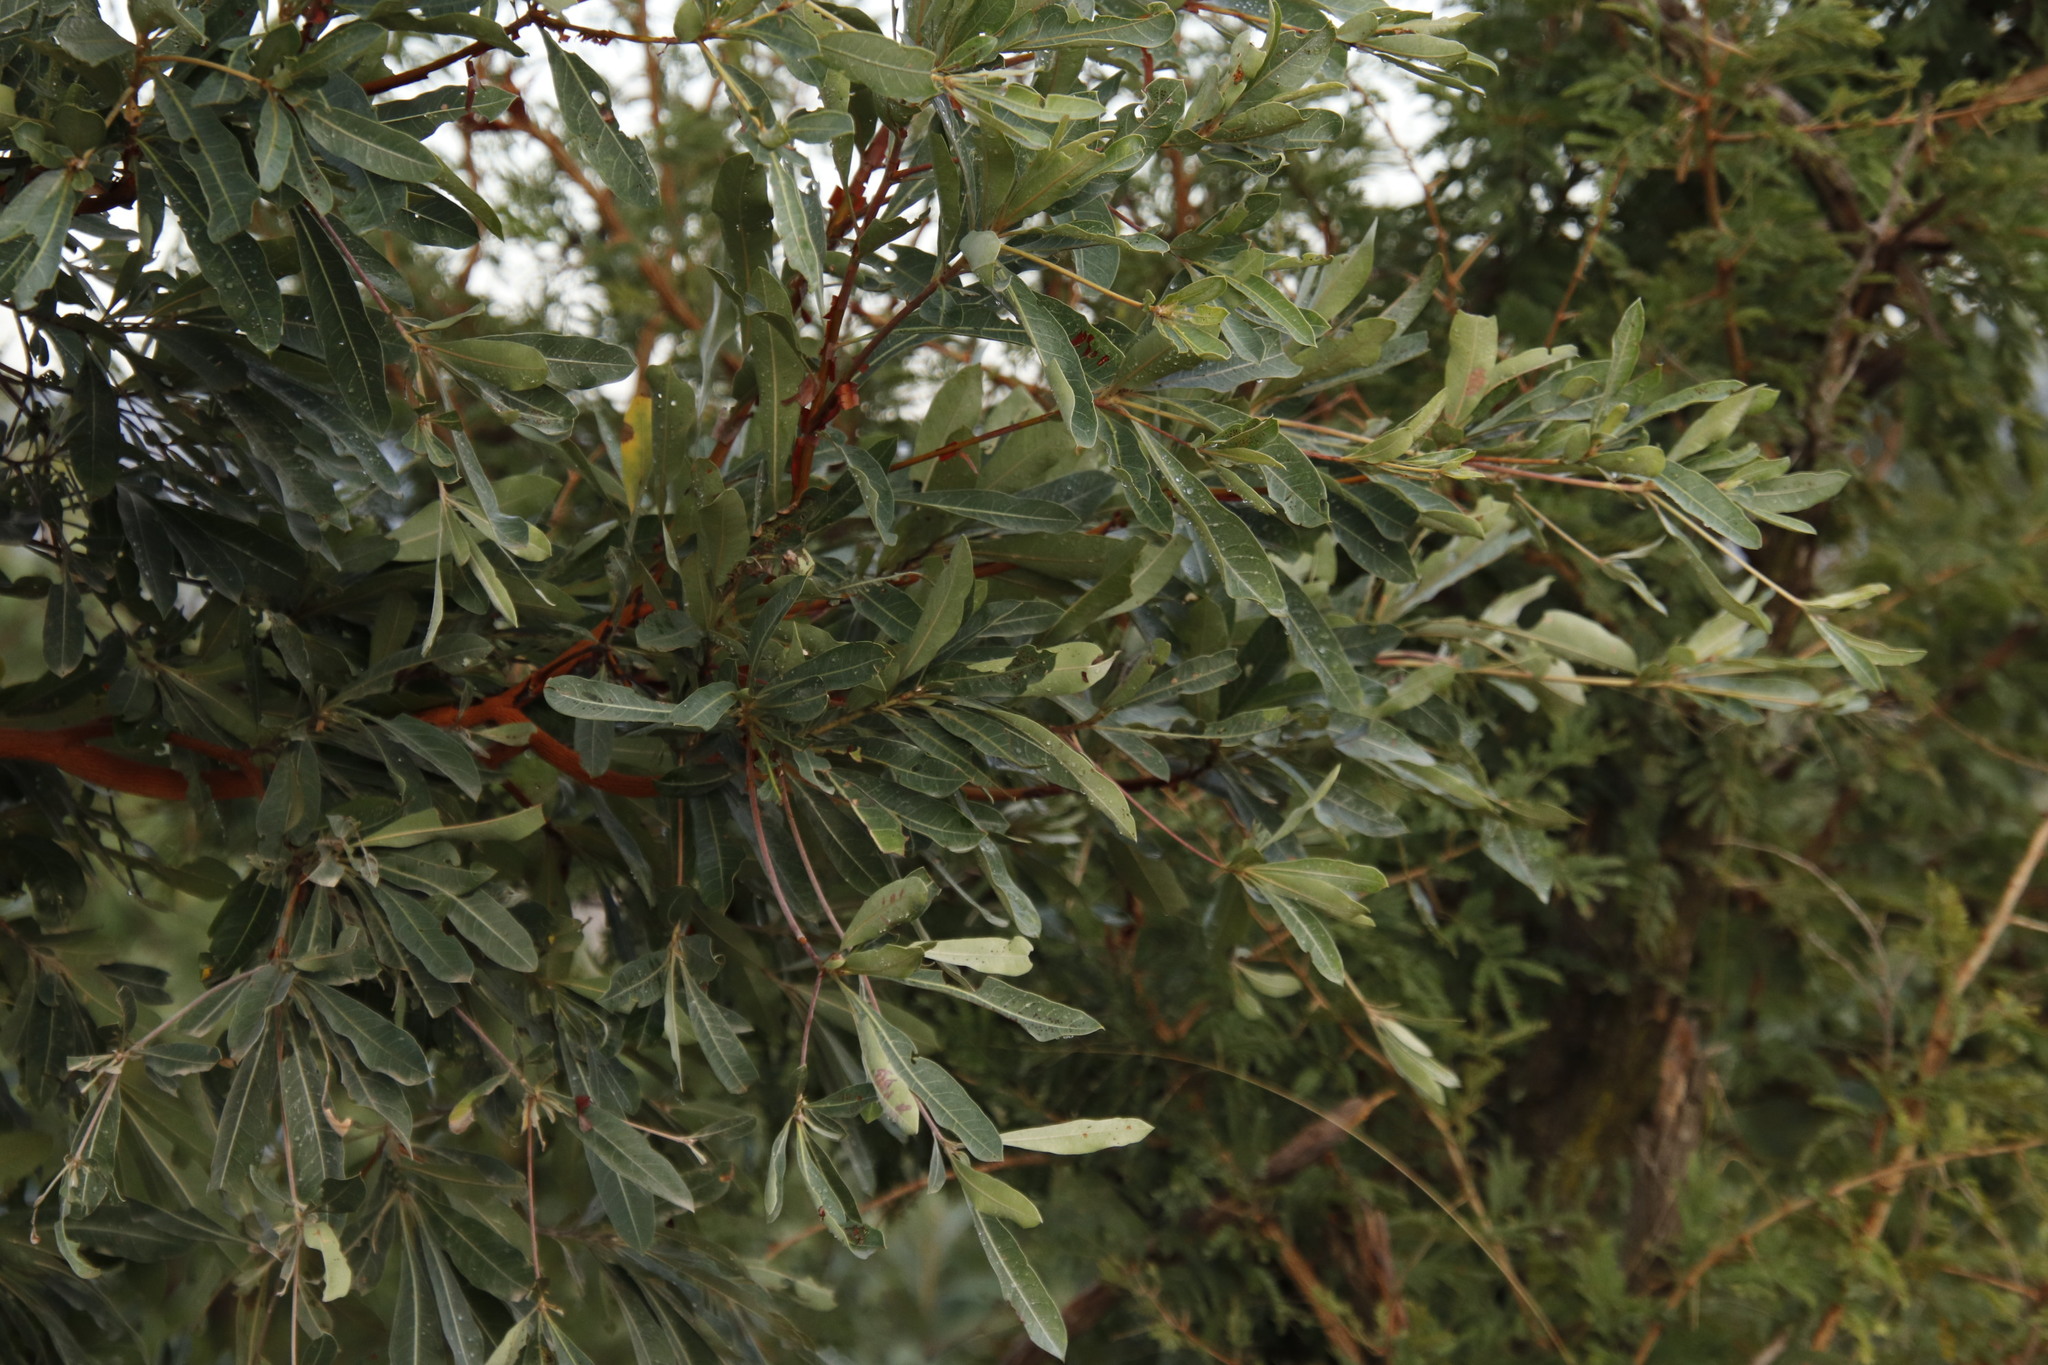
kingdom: Plantae
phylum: Tracheophyta
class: Magnoliopsida
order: Myrtales
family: Combretaceae
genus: Terminalia
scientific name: Terminalia sericea
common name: Clusterleaf
